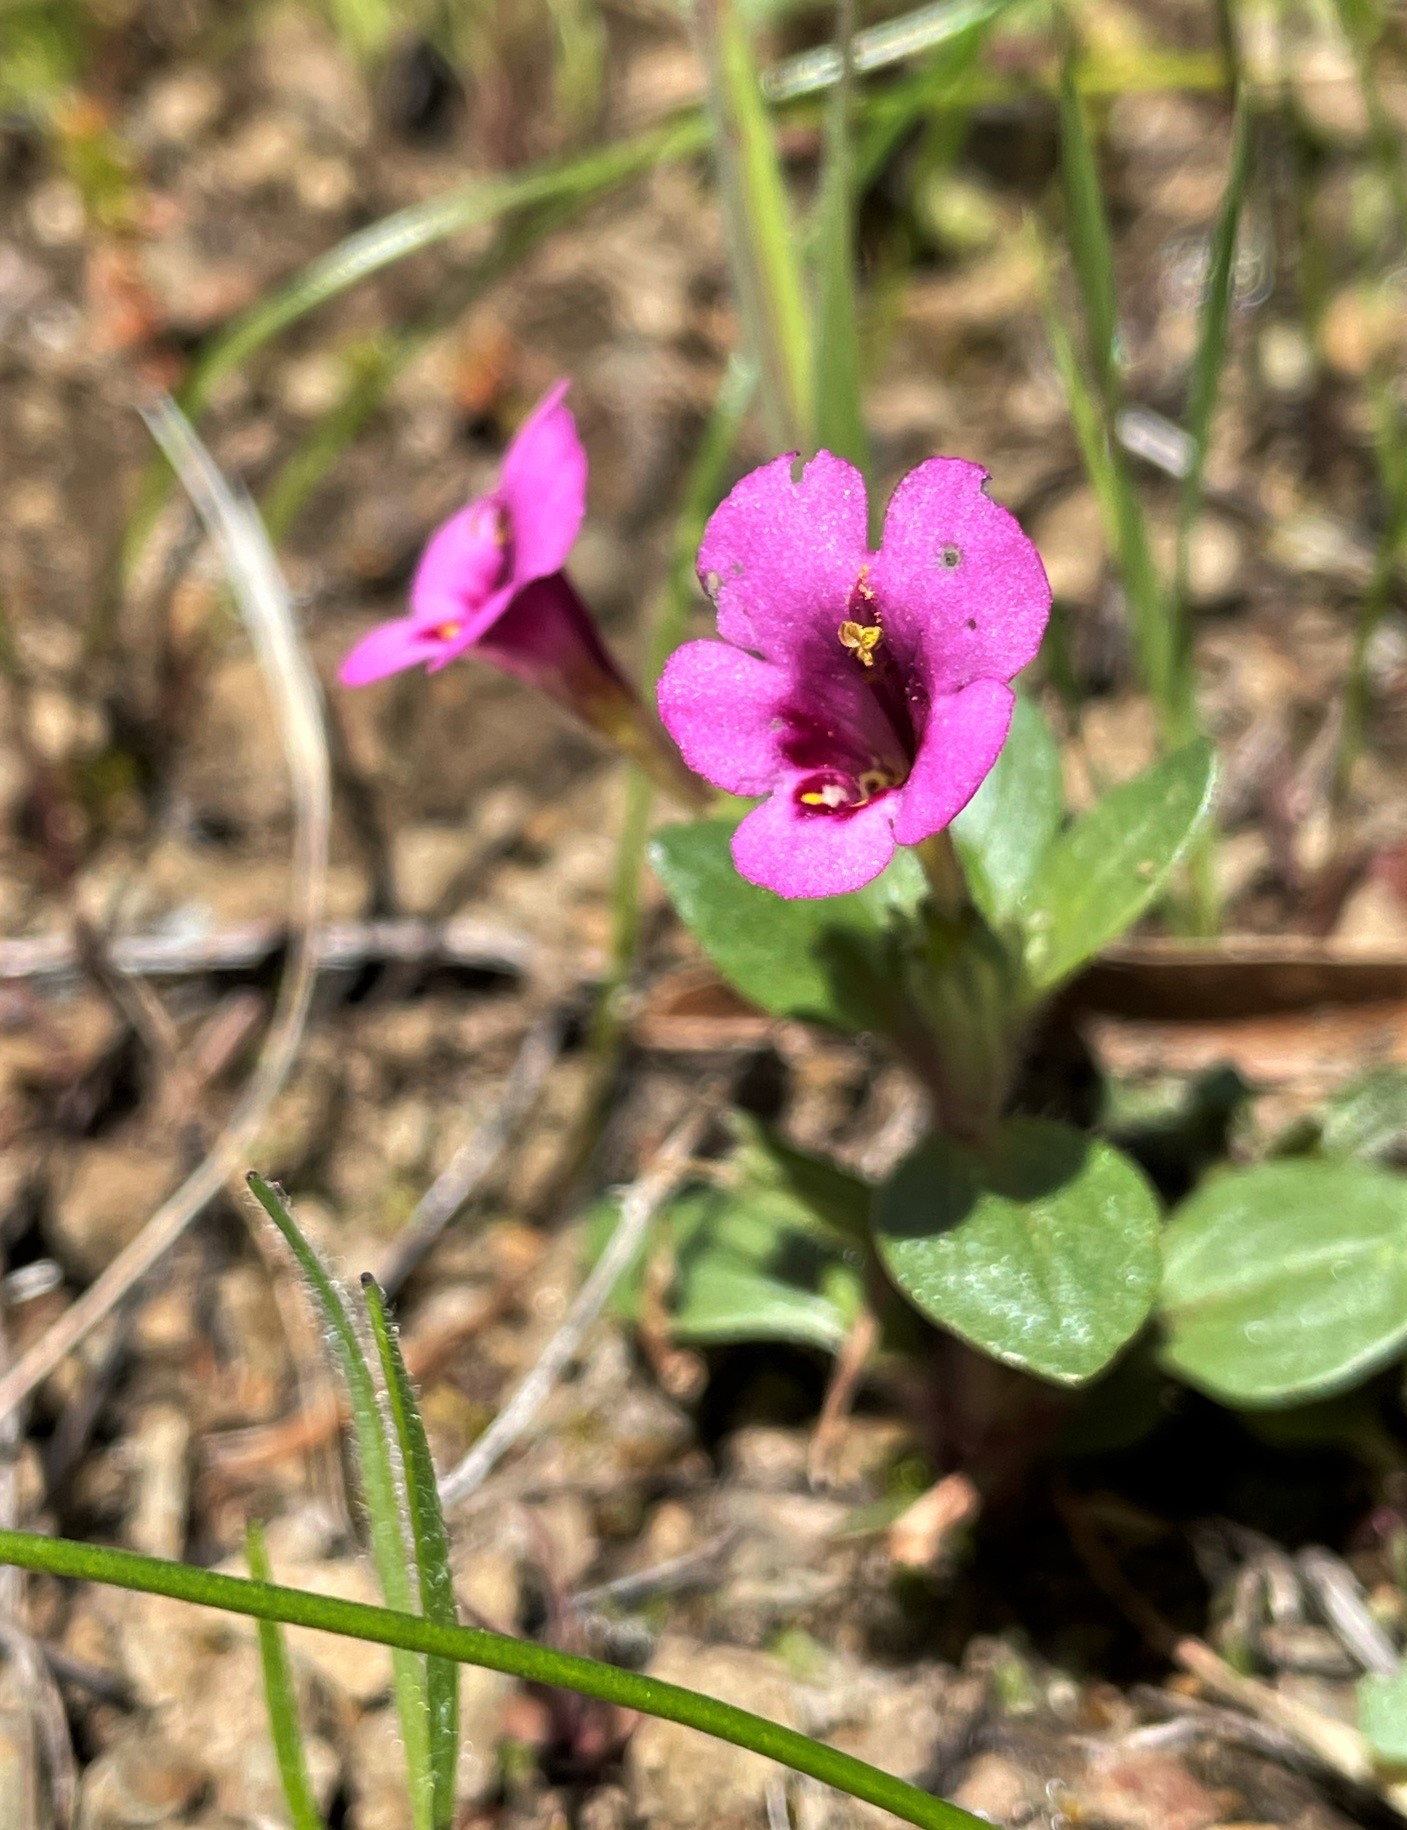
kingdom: Plantae
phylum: Tracheophyta
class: Magnoliopsida
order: Lamiales
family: Phrymaceae
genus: Diplacus
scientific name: Diplacus congdonii
